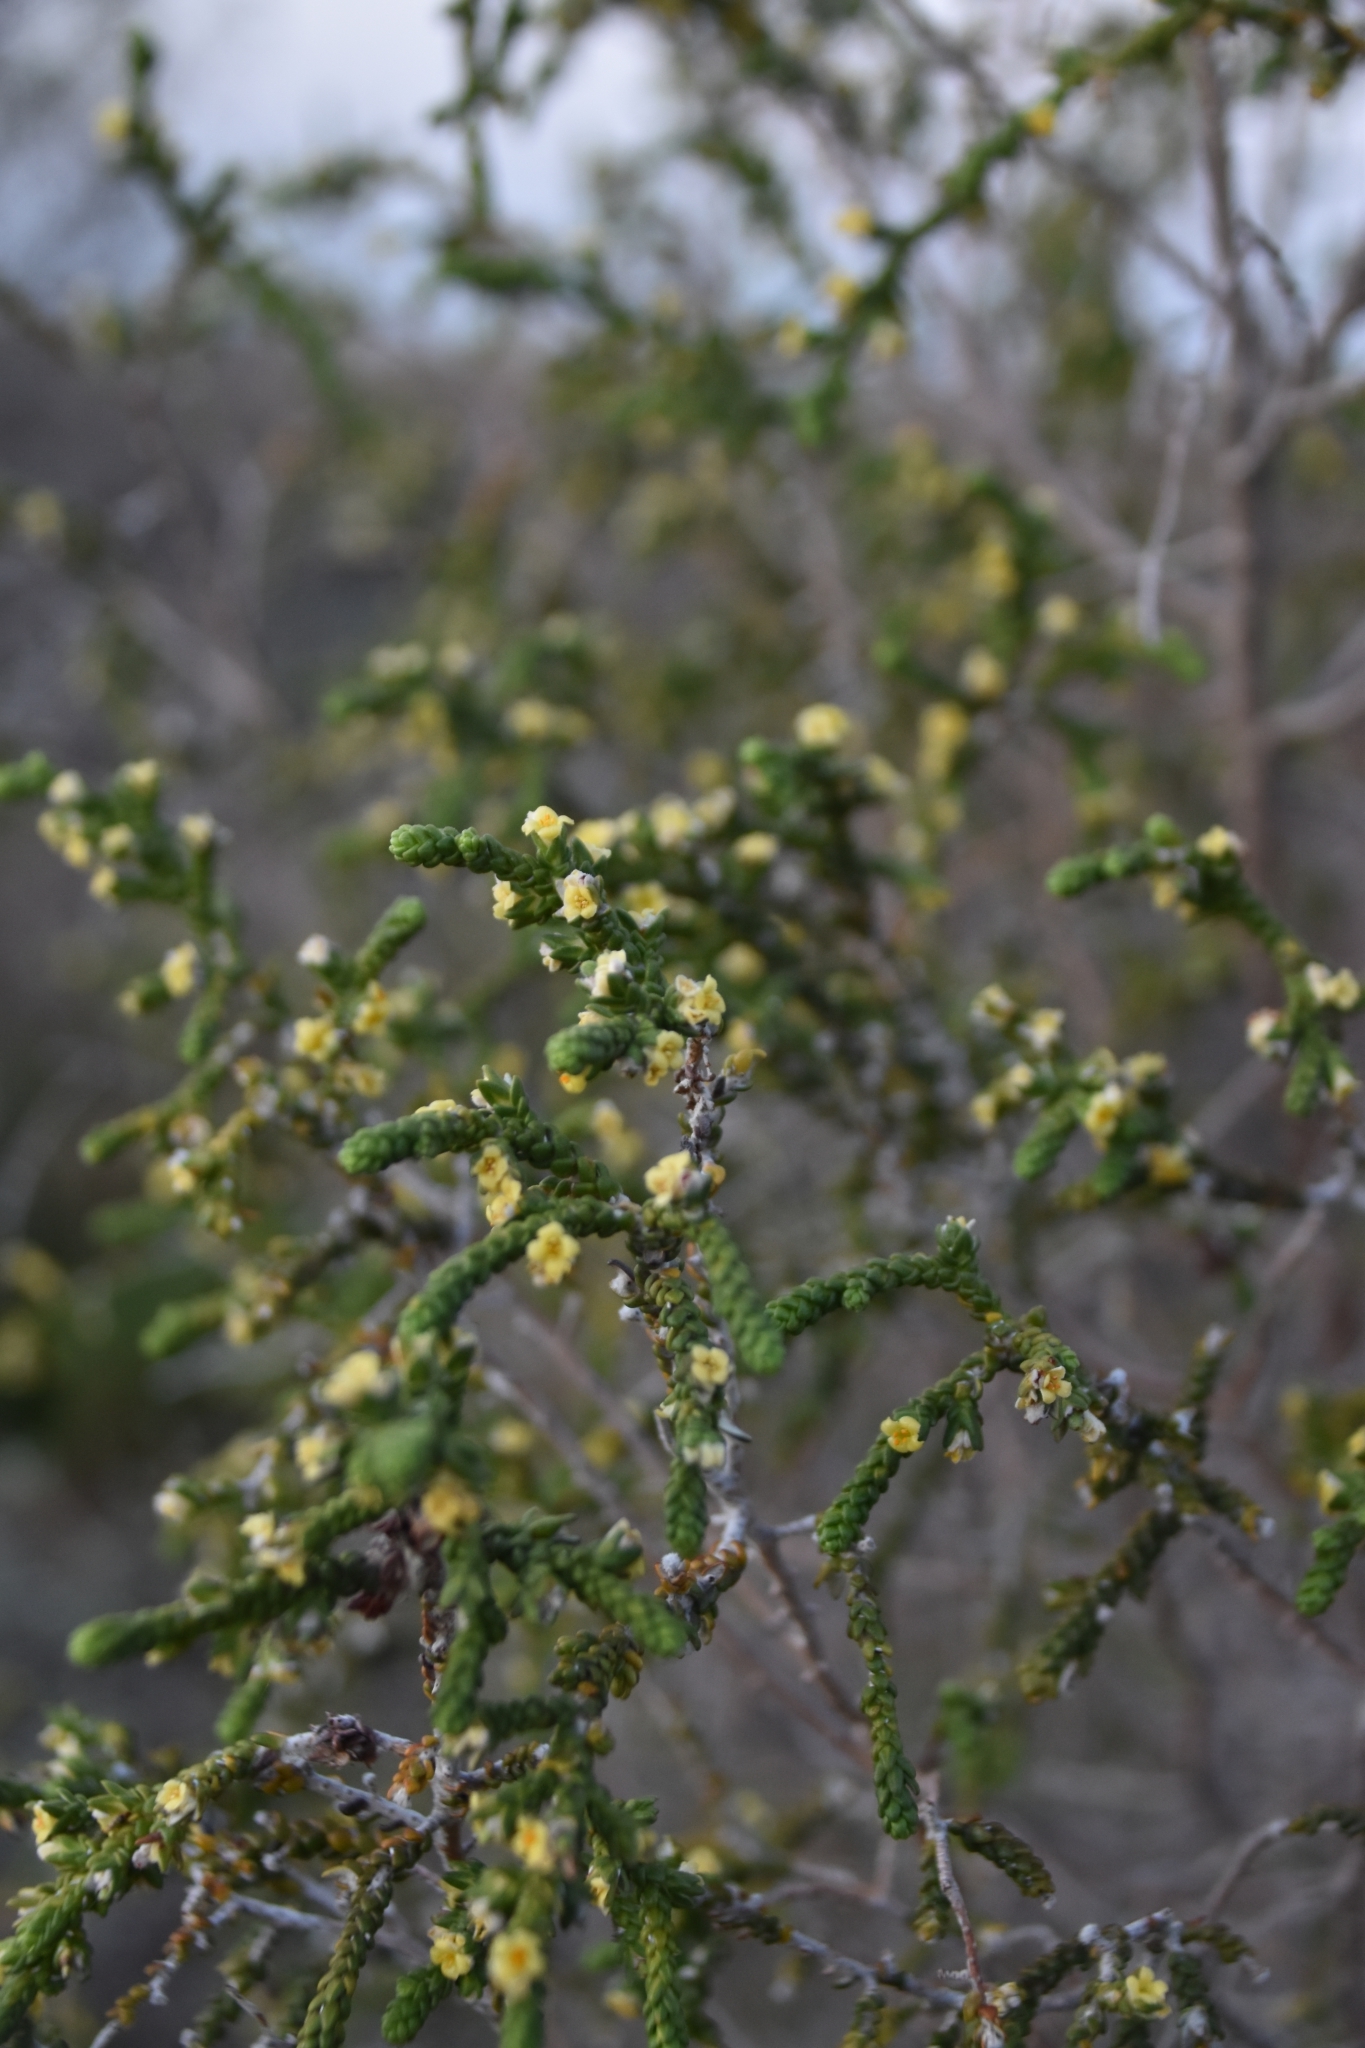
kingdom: Plantae
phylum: Tracheophyta
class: Magnoliopsida
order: Malvales
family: Thymelaeaceae
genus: Thymelaea
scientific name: Thymelaea hirsuta
